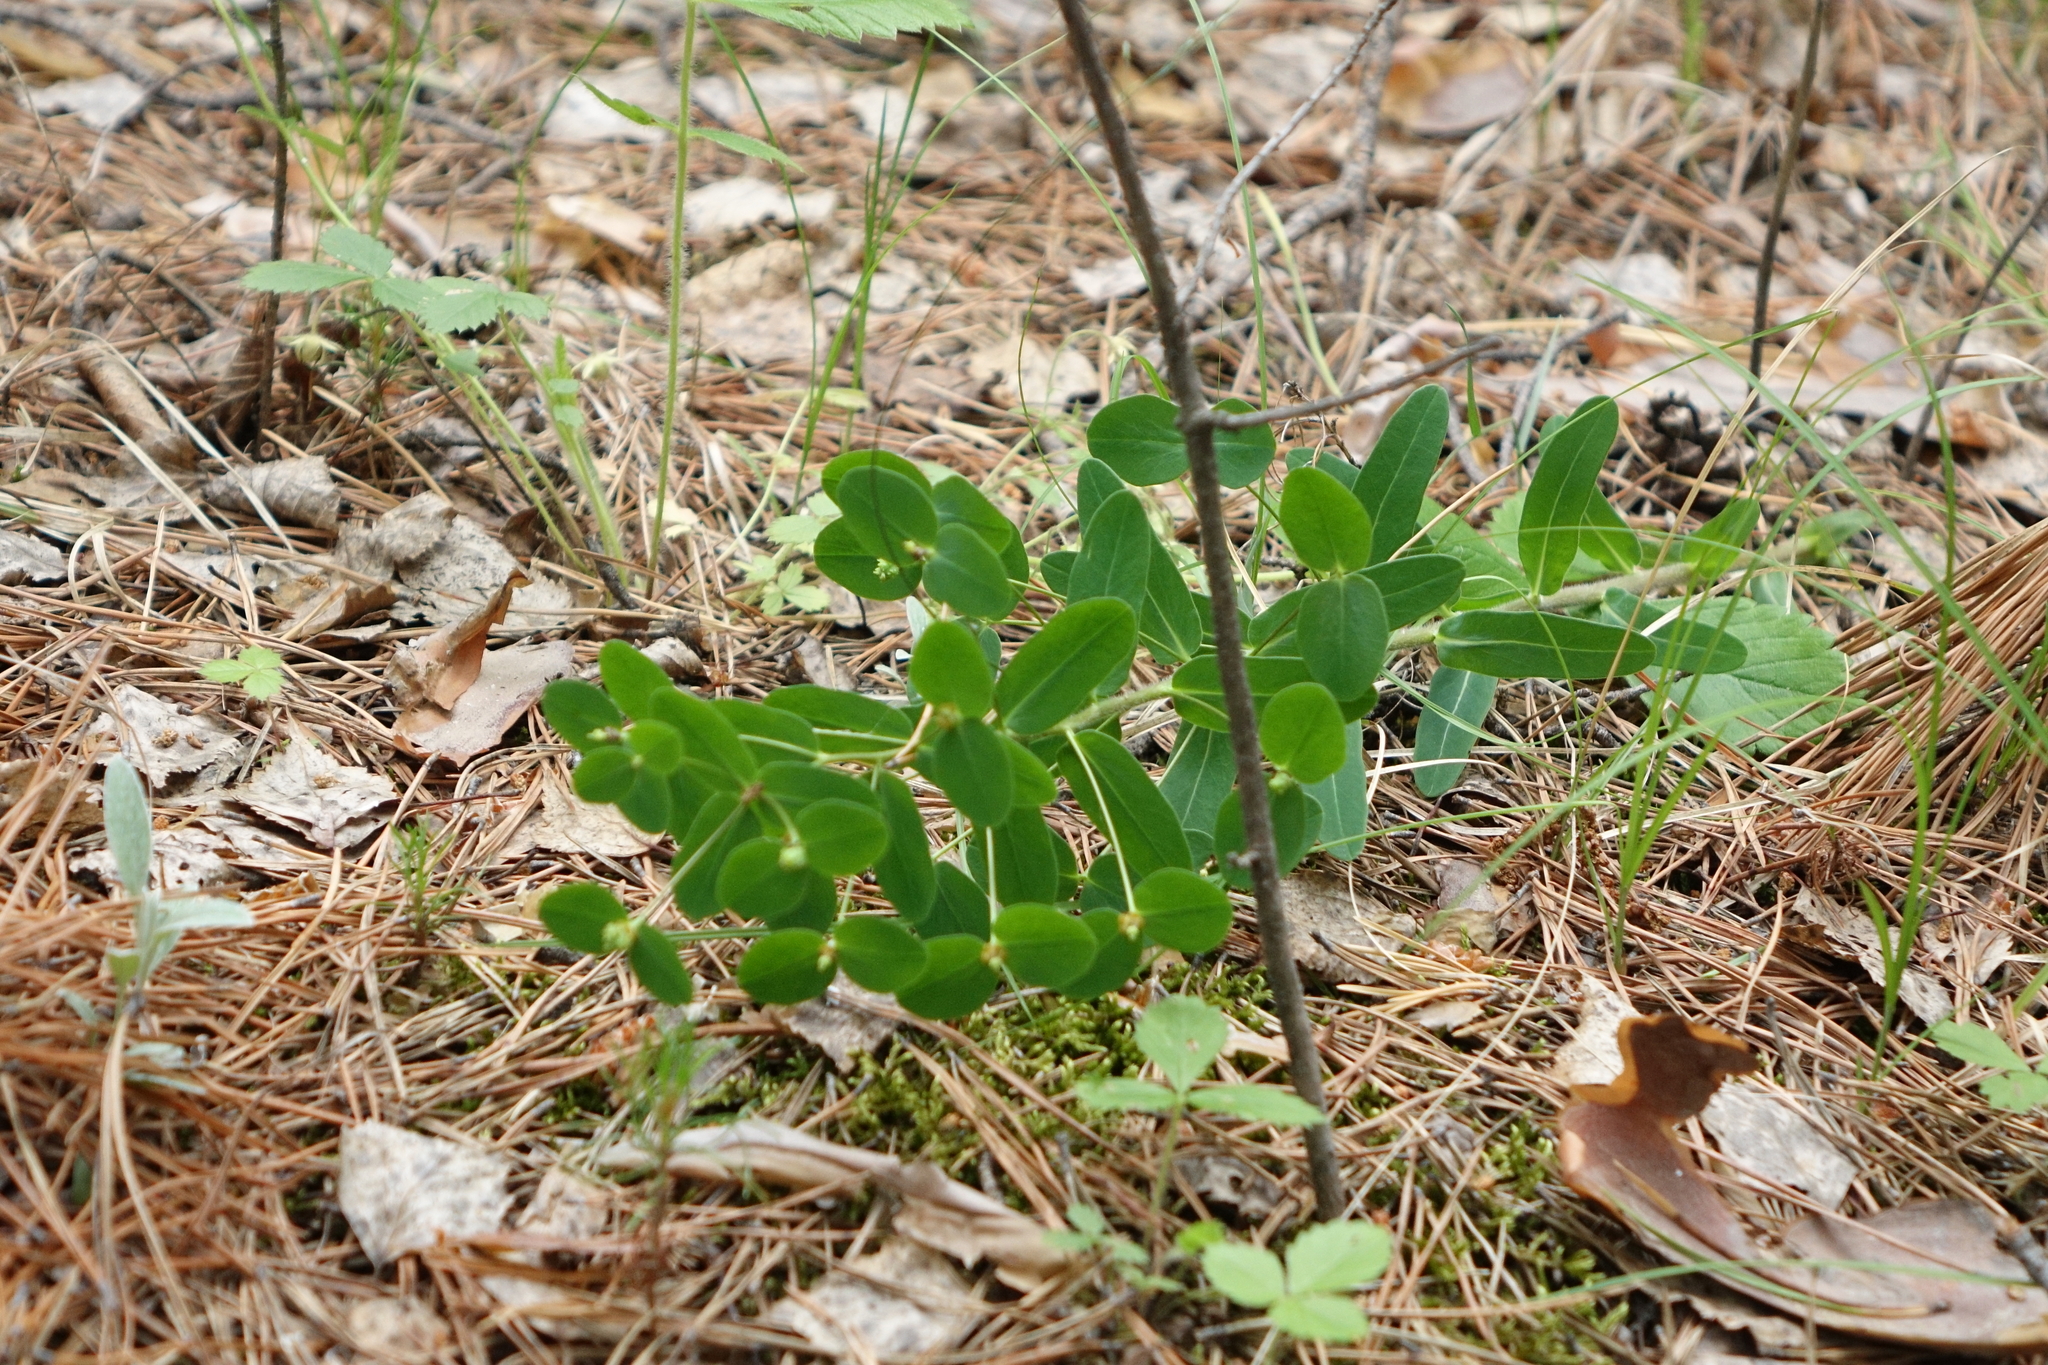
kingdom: Plantae
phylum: Tracheophyta
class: Magnoliopsida
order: Malpighiales
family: Euphorbiaceae
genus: Euphorbia
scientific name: Euphorbia jenisseiensis
